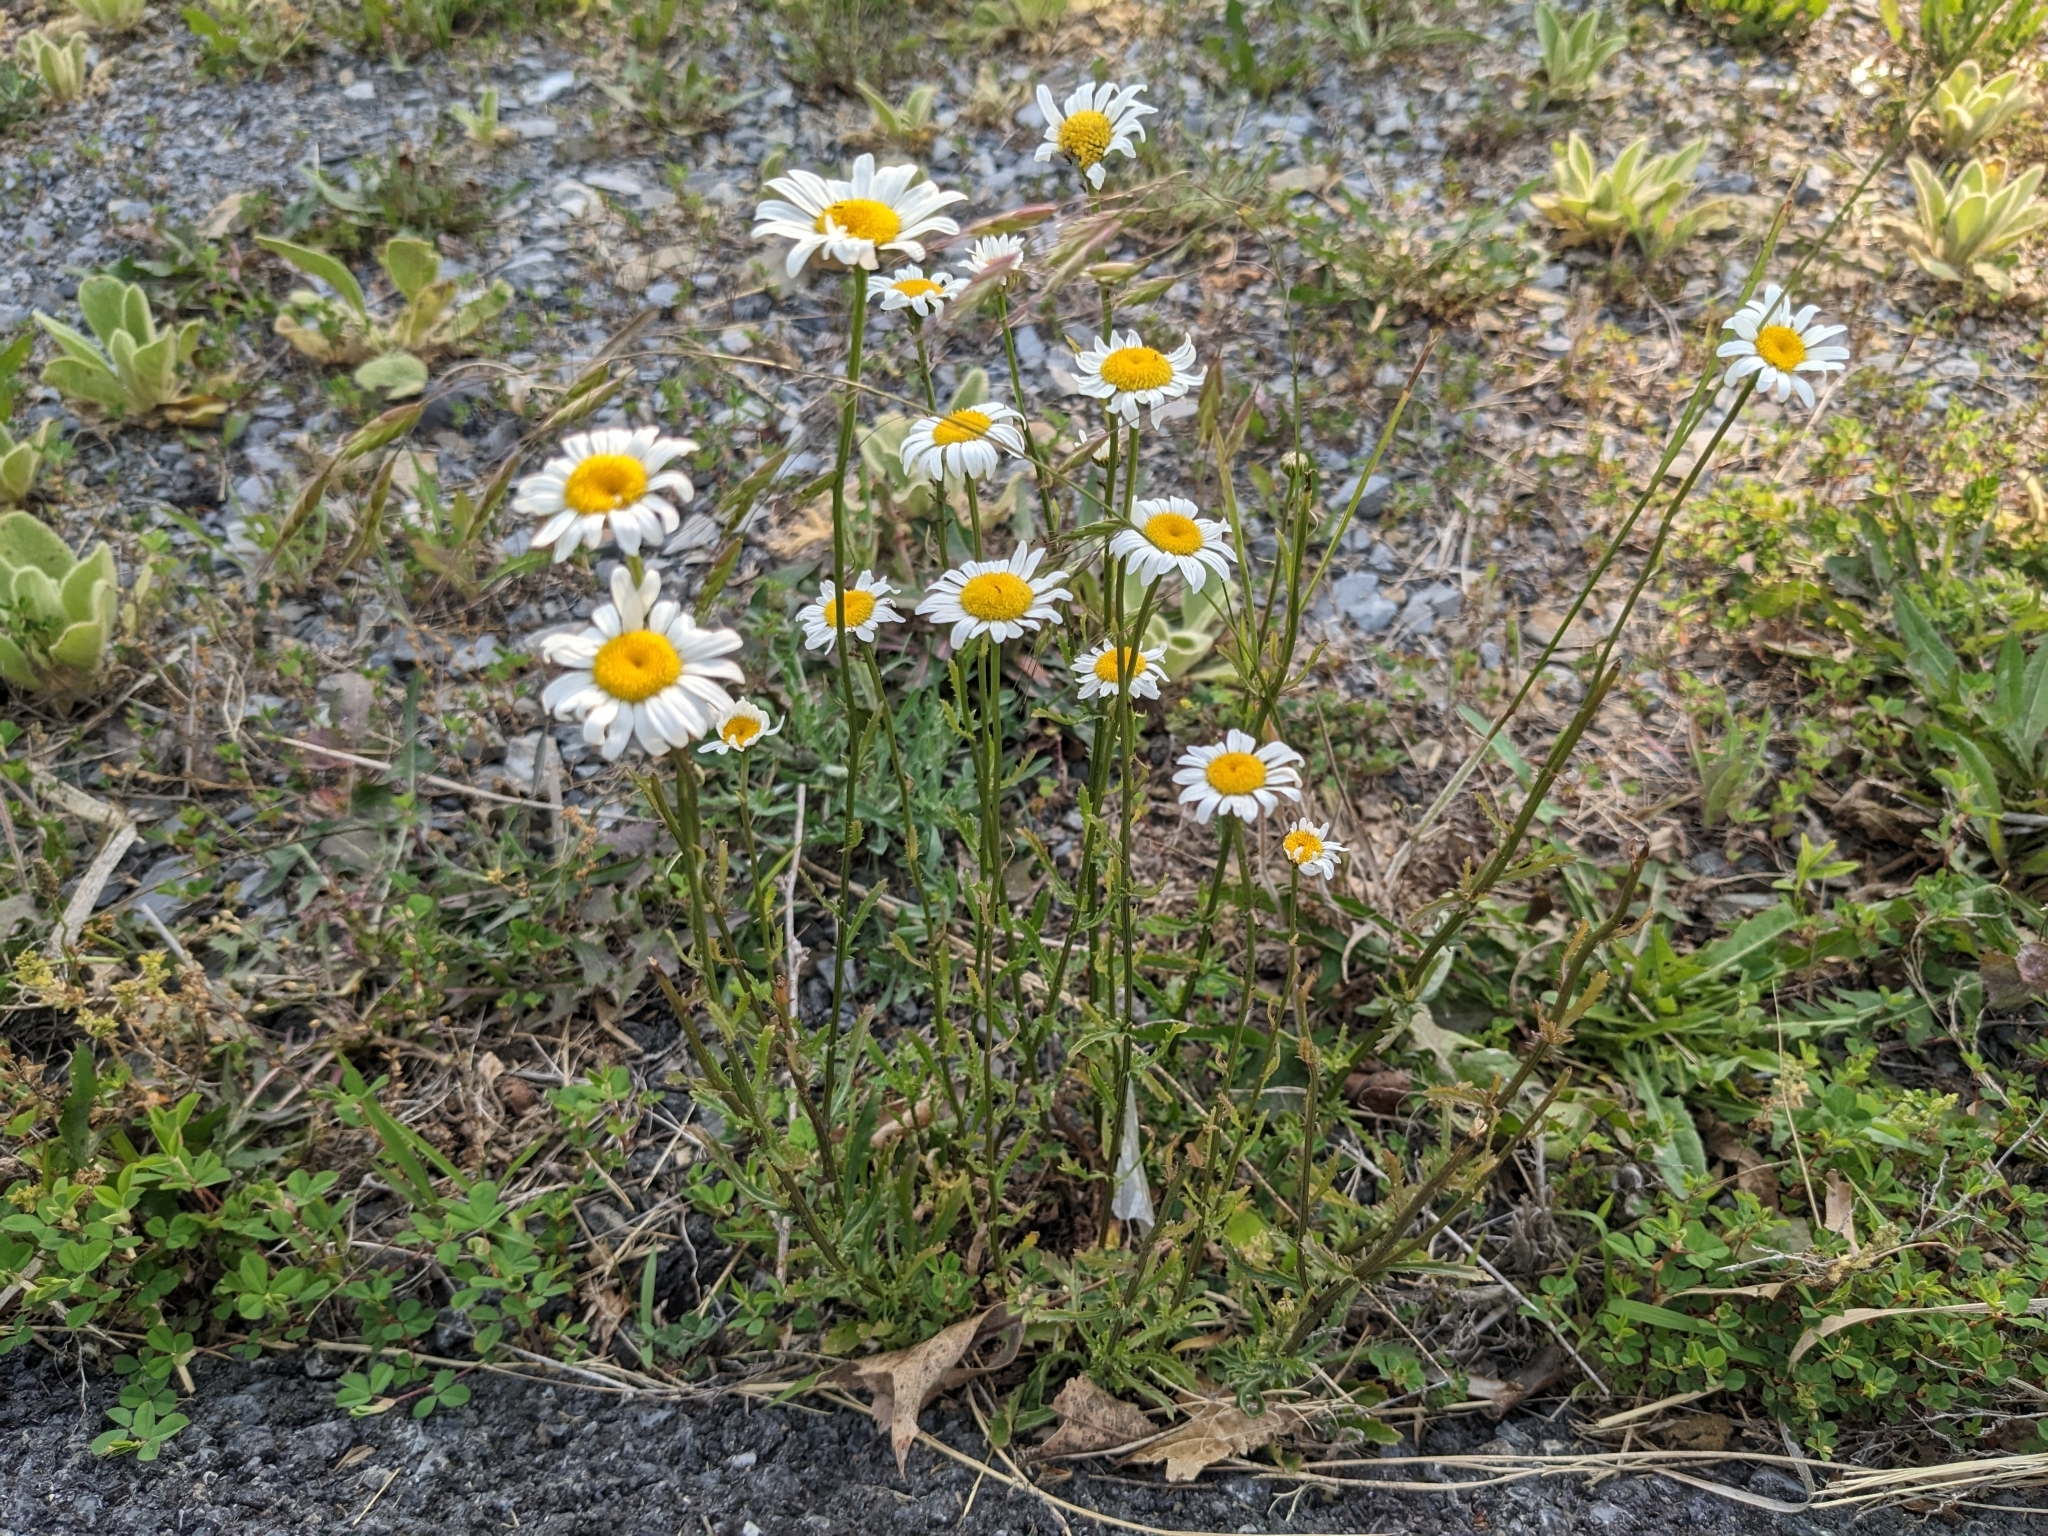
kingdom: Plantae
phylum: Tracheophyta
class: Magnoliopsida
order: Asterales
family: Asteraceae
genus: Leucanthemum
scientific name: Leucanthemum vulgare
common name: Oxeye daisy
